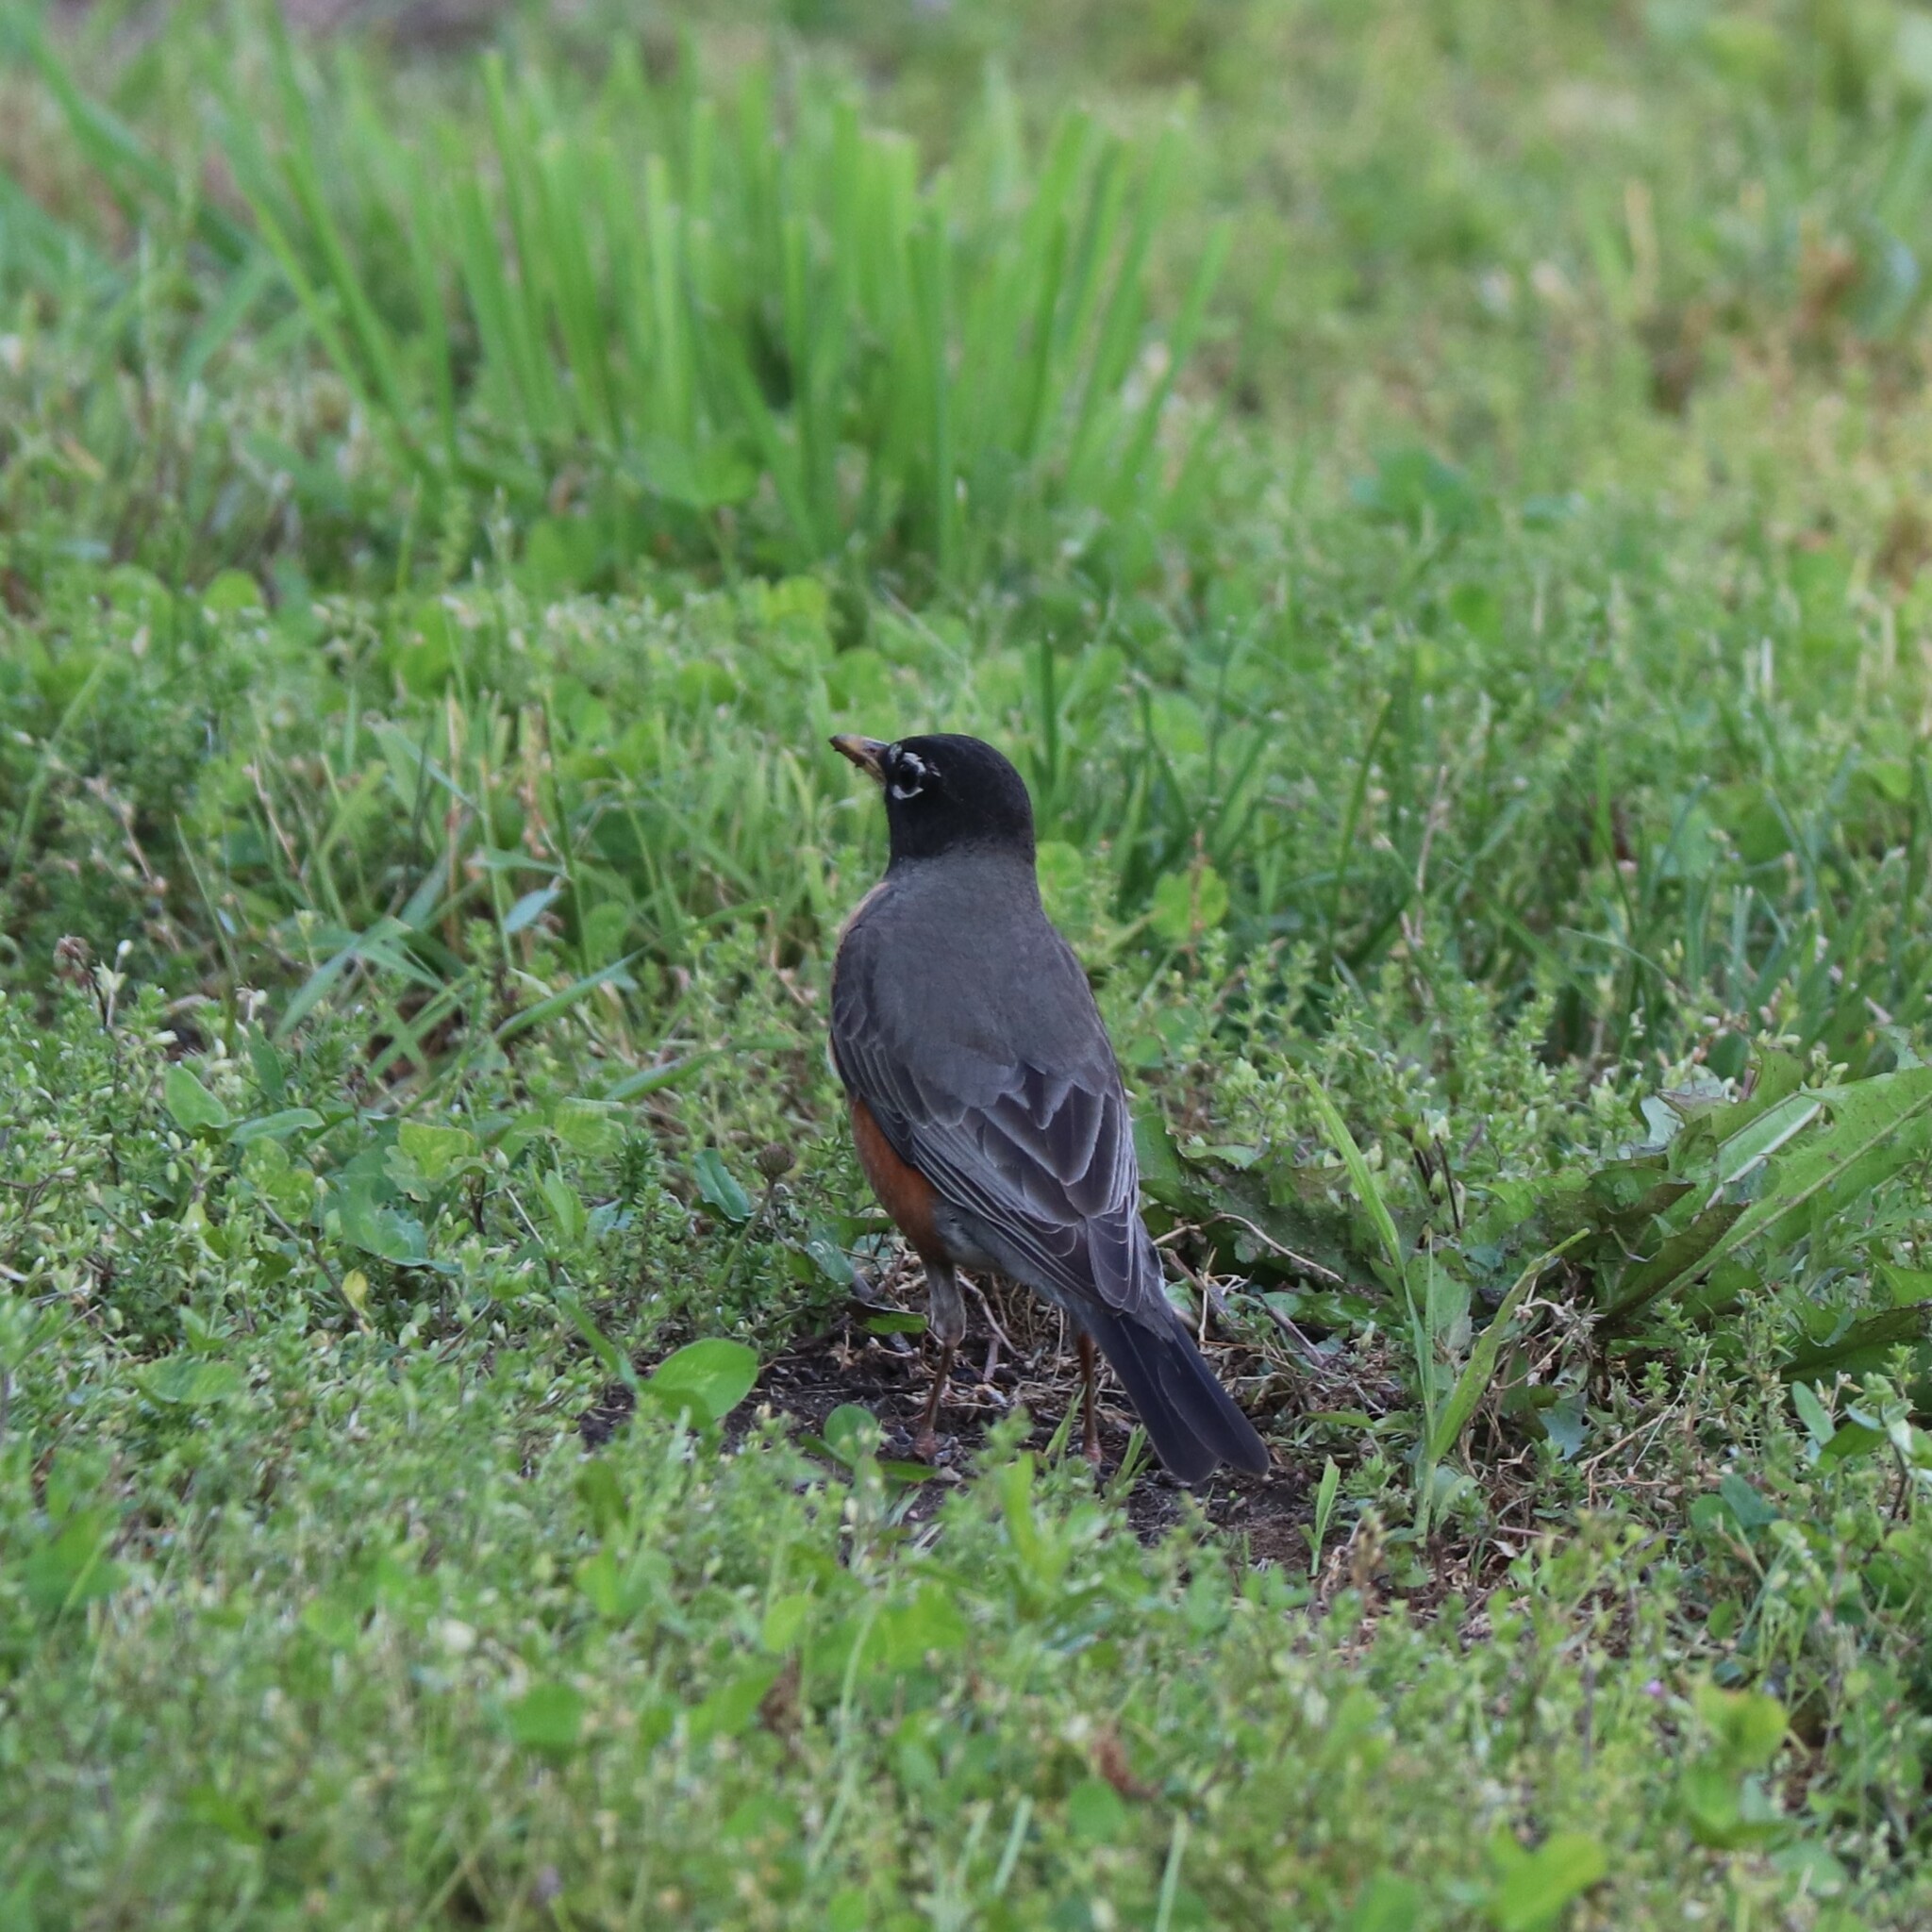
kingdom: Animalia
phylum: Chordata
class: Aves
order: Passeriformes
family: Turdidae
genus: Turdus
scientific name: Turdus migratorius
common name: American robin
